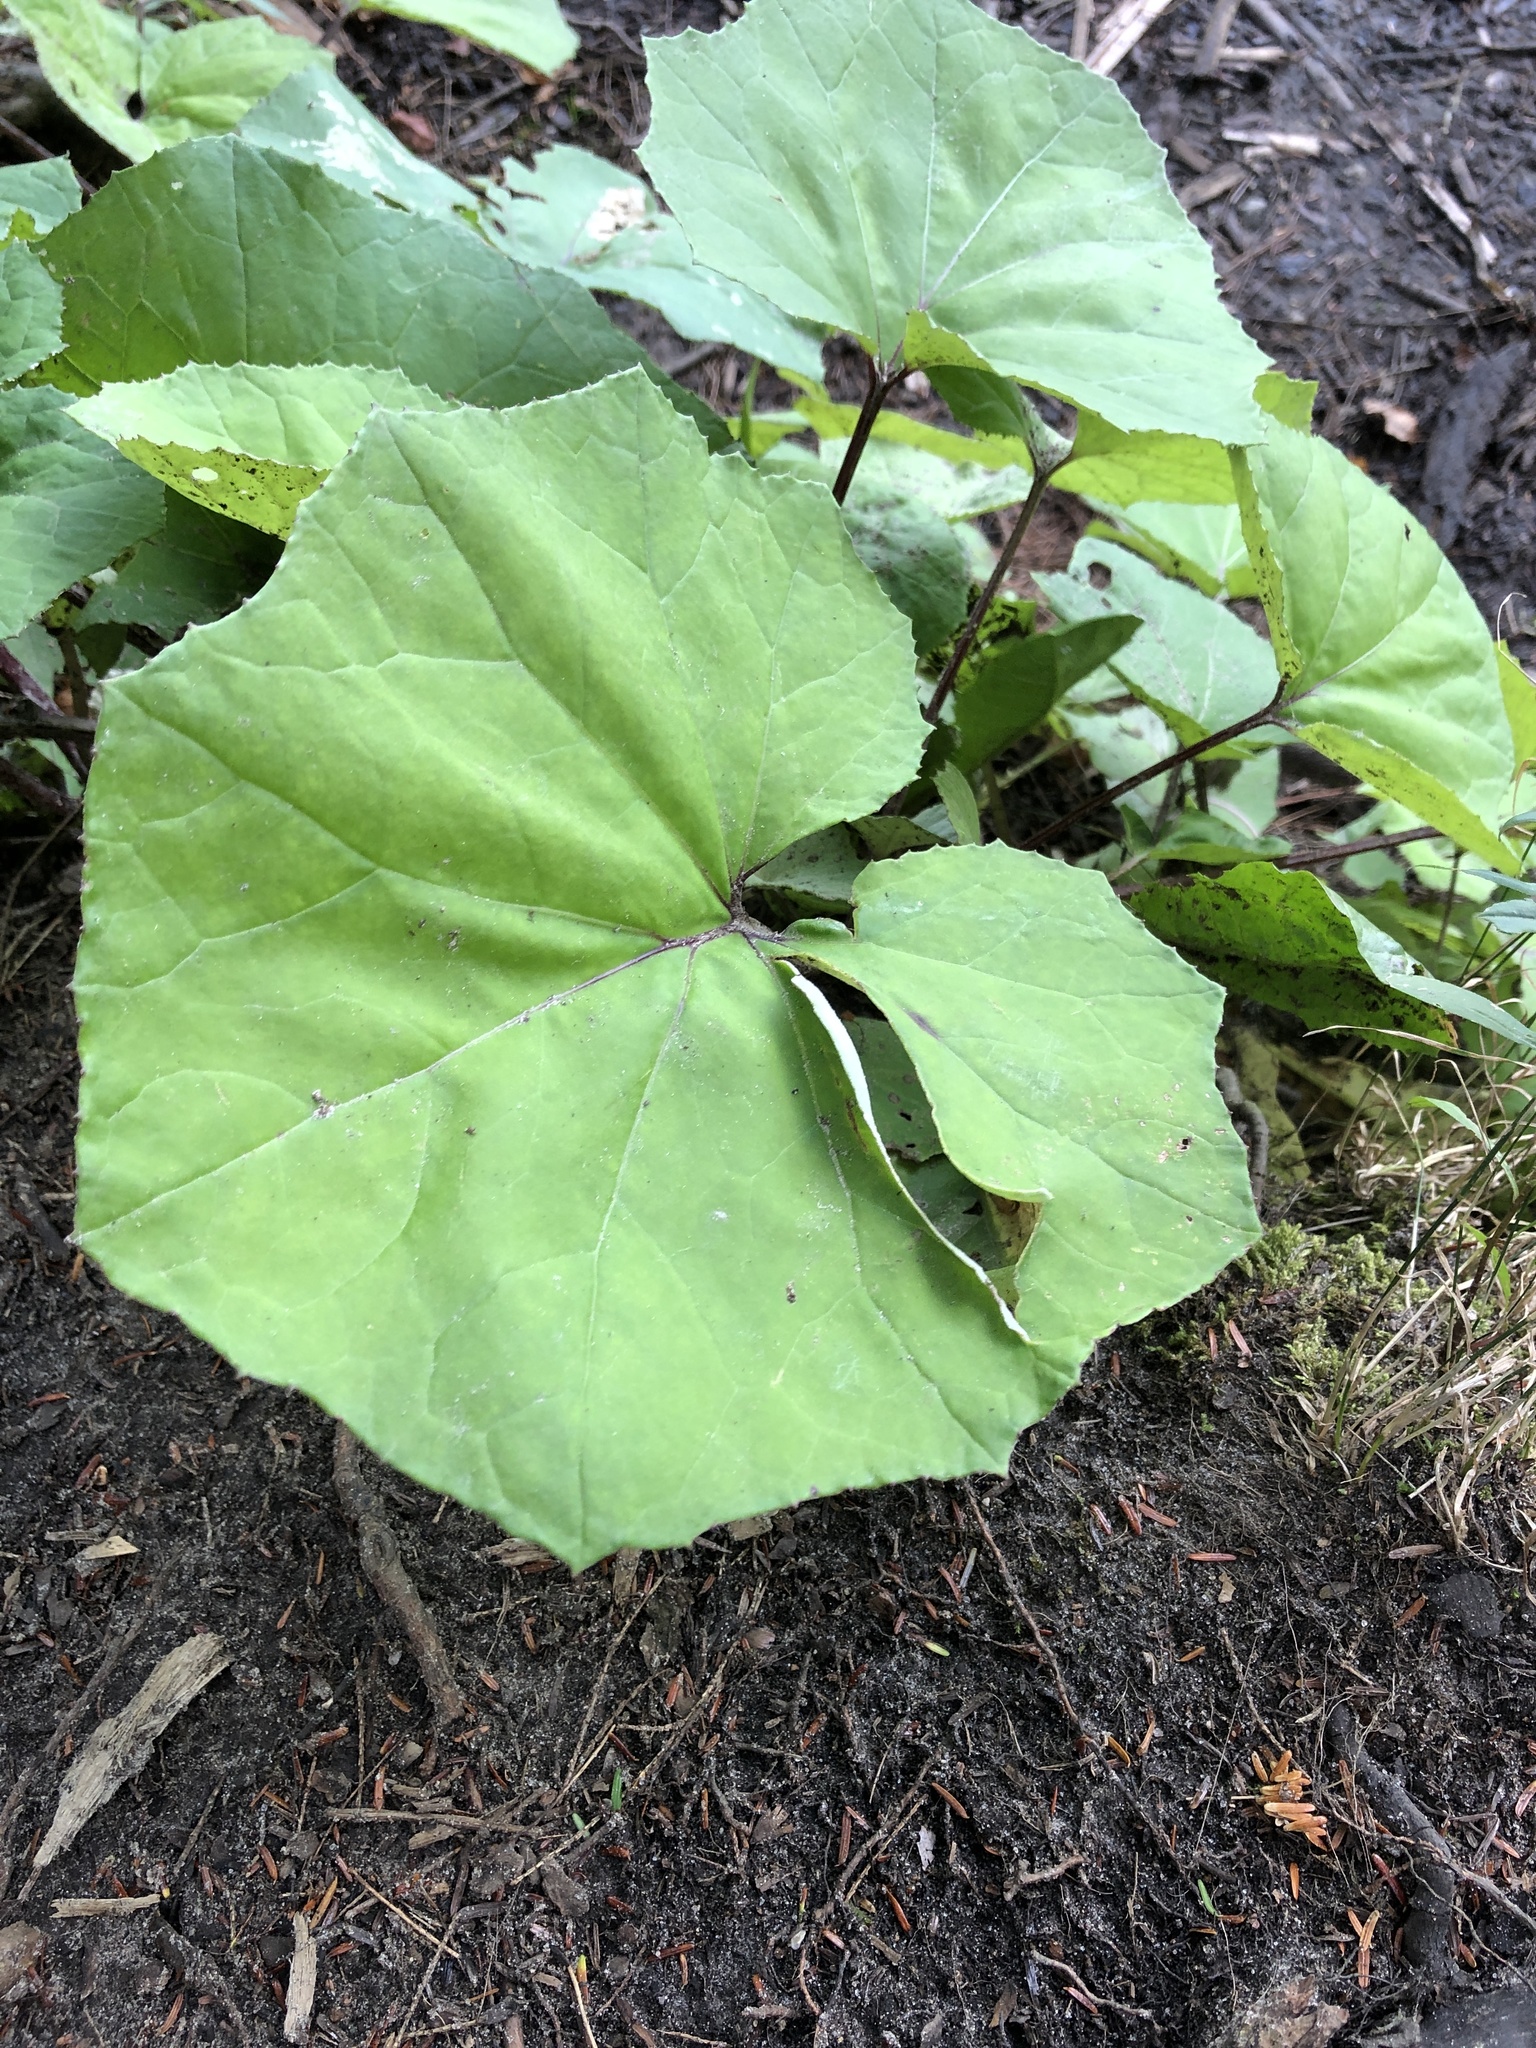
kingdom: Plantae
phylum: Tracheophyta
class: Magnoliopsida
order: Asterales
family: Asteraceae
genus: Tussilago
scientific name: Tussilago farfara
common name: Coltsfoot
